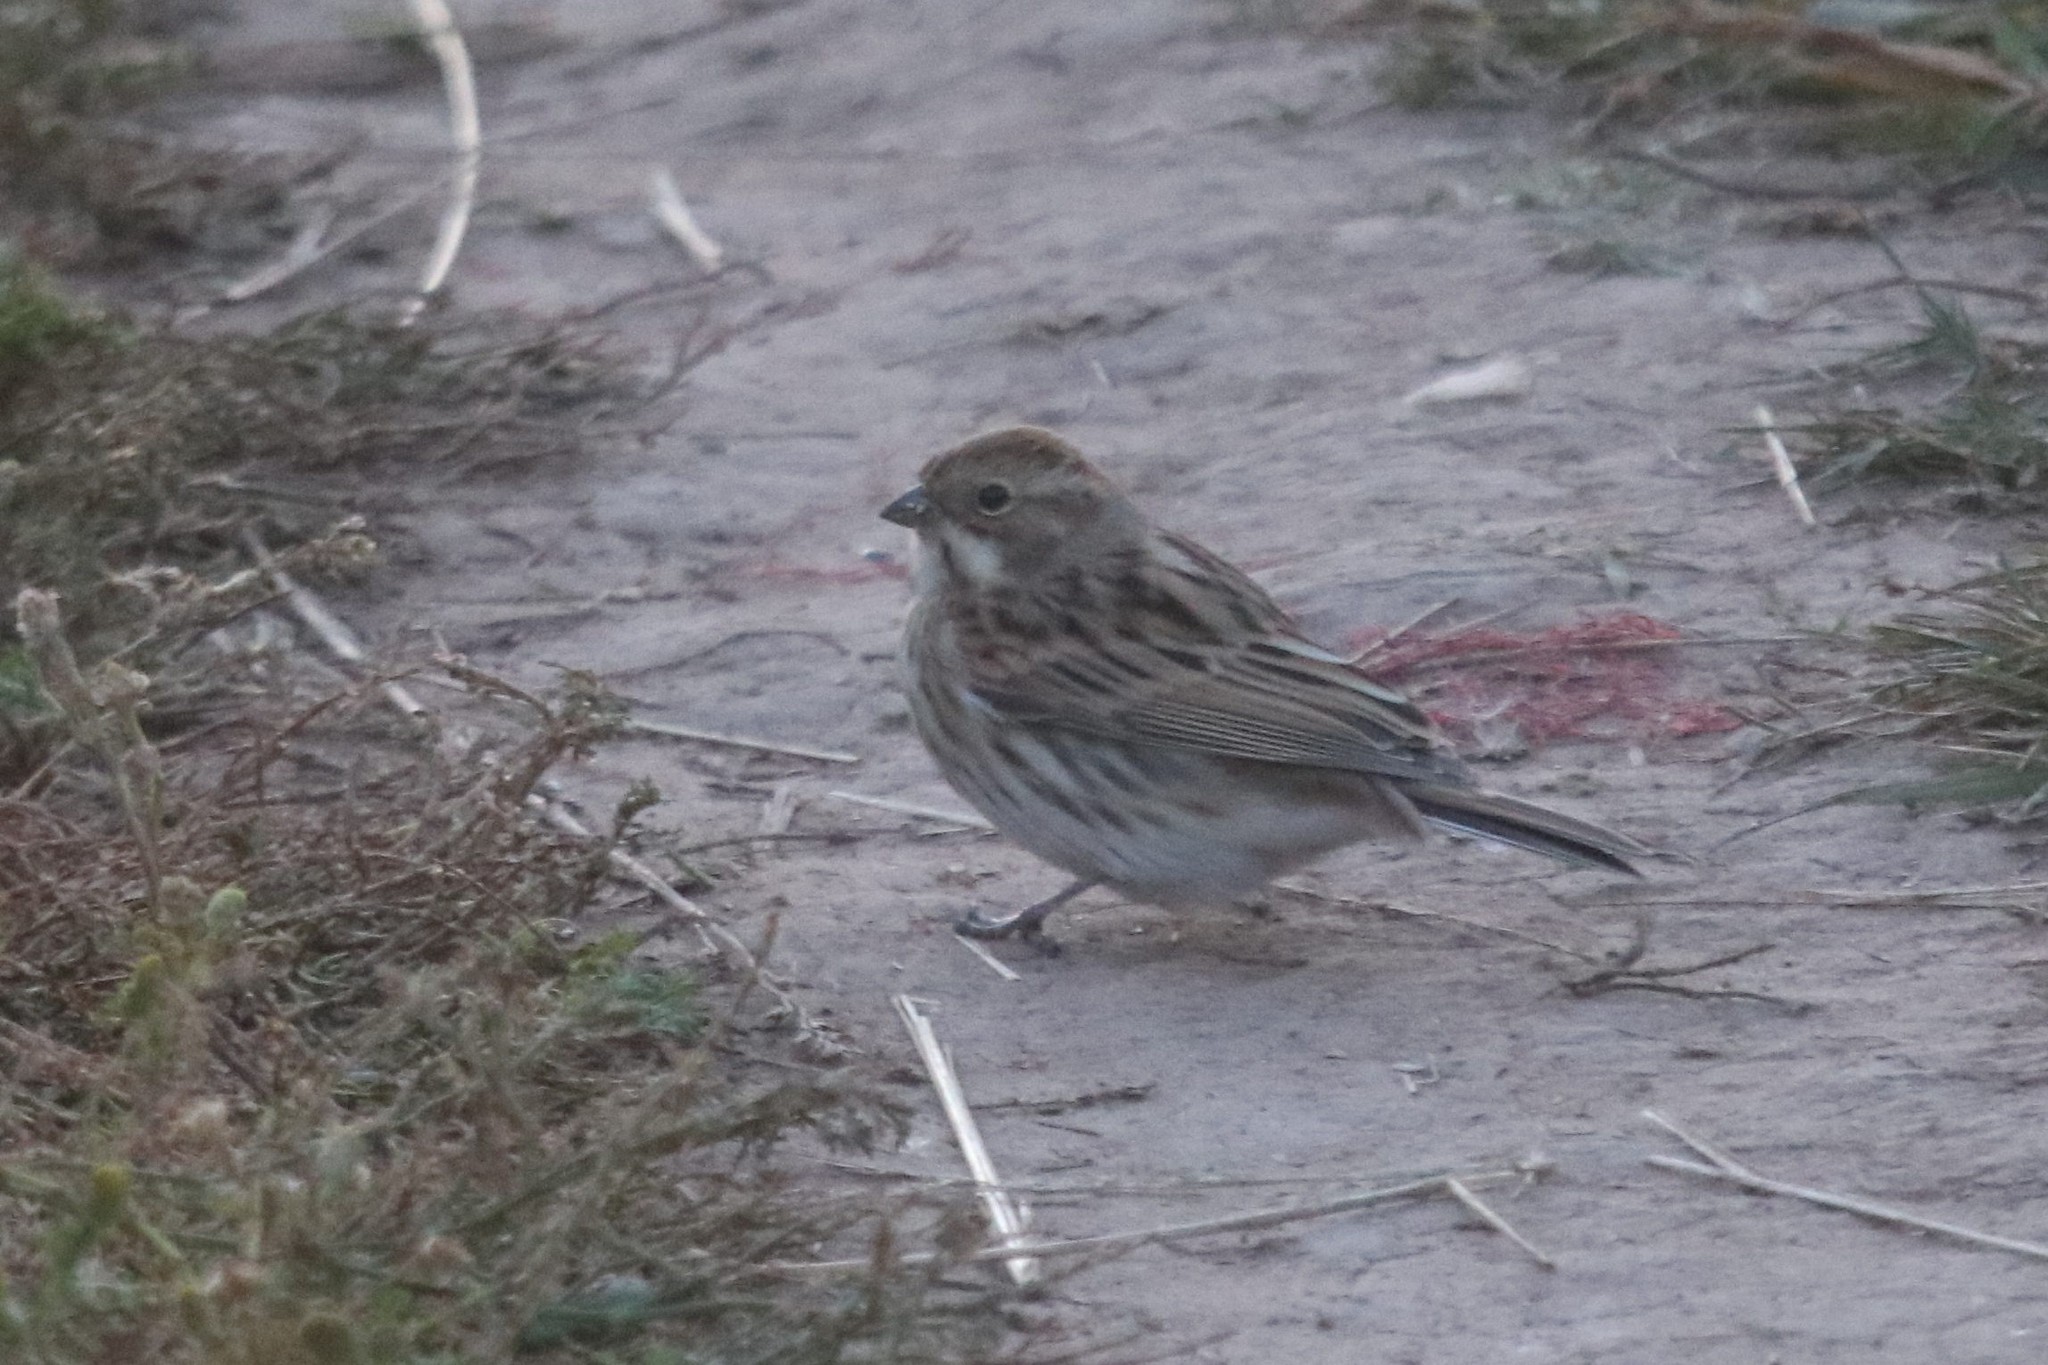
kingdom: Animalia
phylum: Chordata
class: Aves
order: Passeriformes
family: Emberizidae
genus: Emberiza
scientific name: Emberiza schoeniclus
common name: Reed bunting
